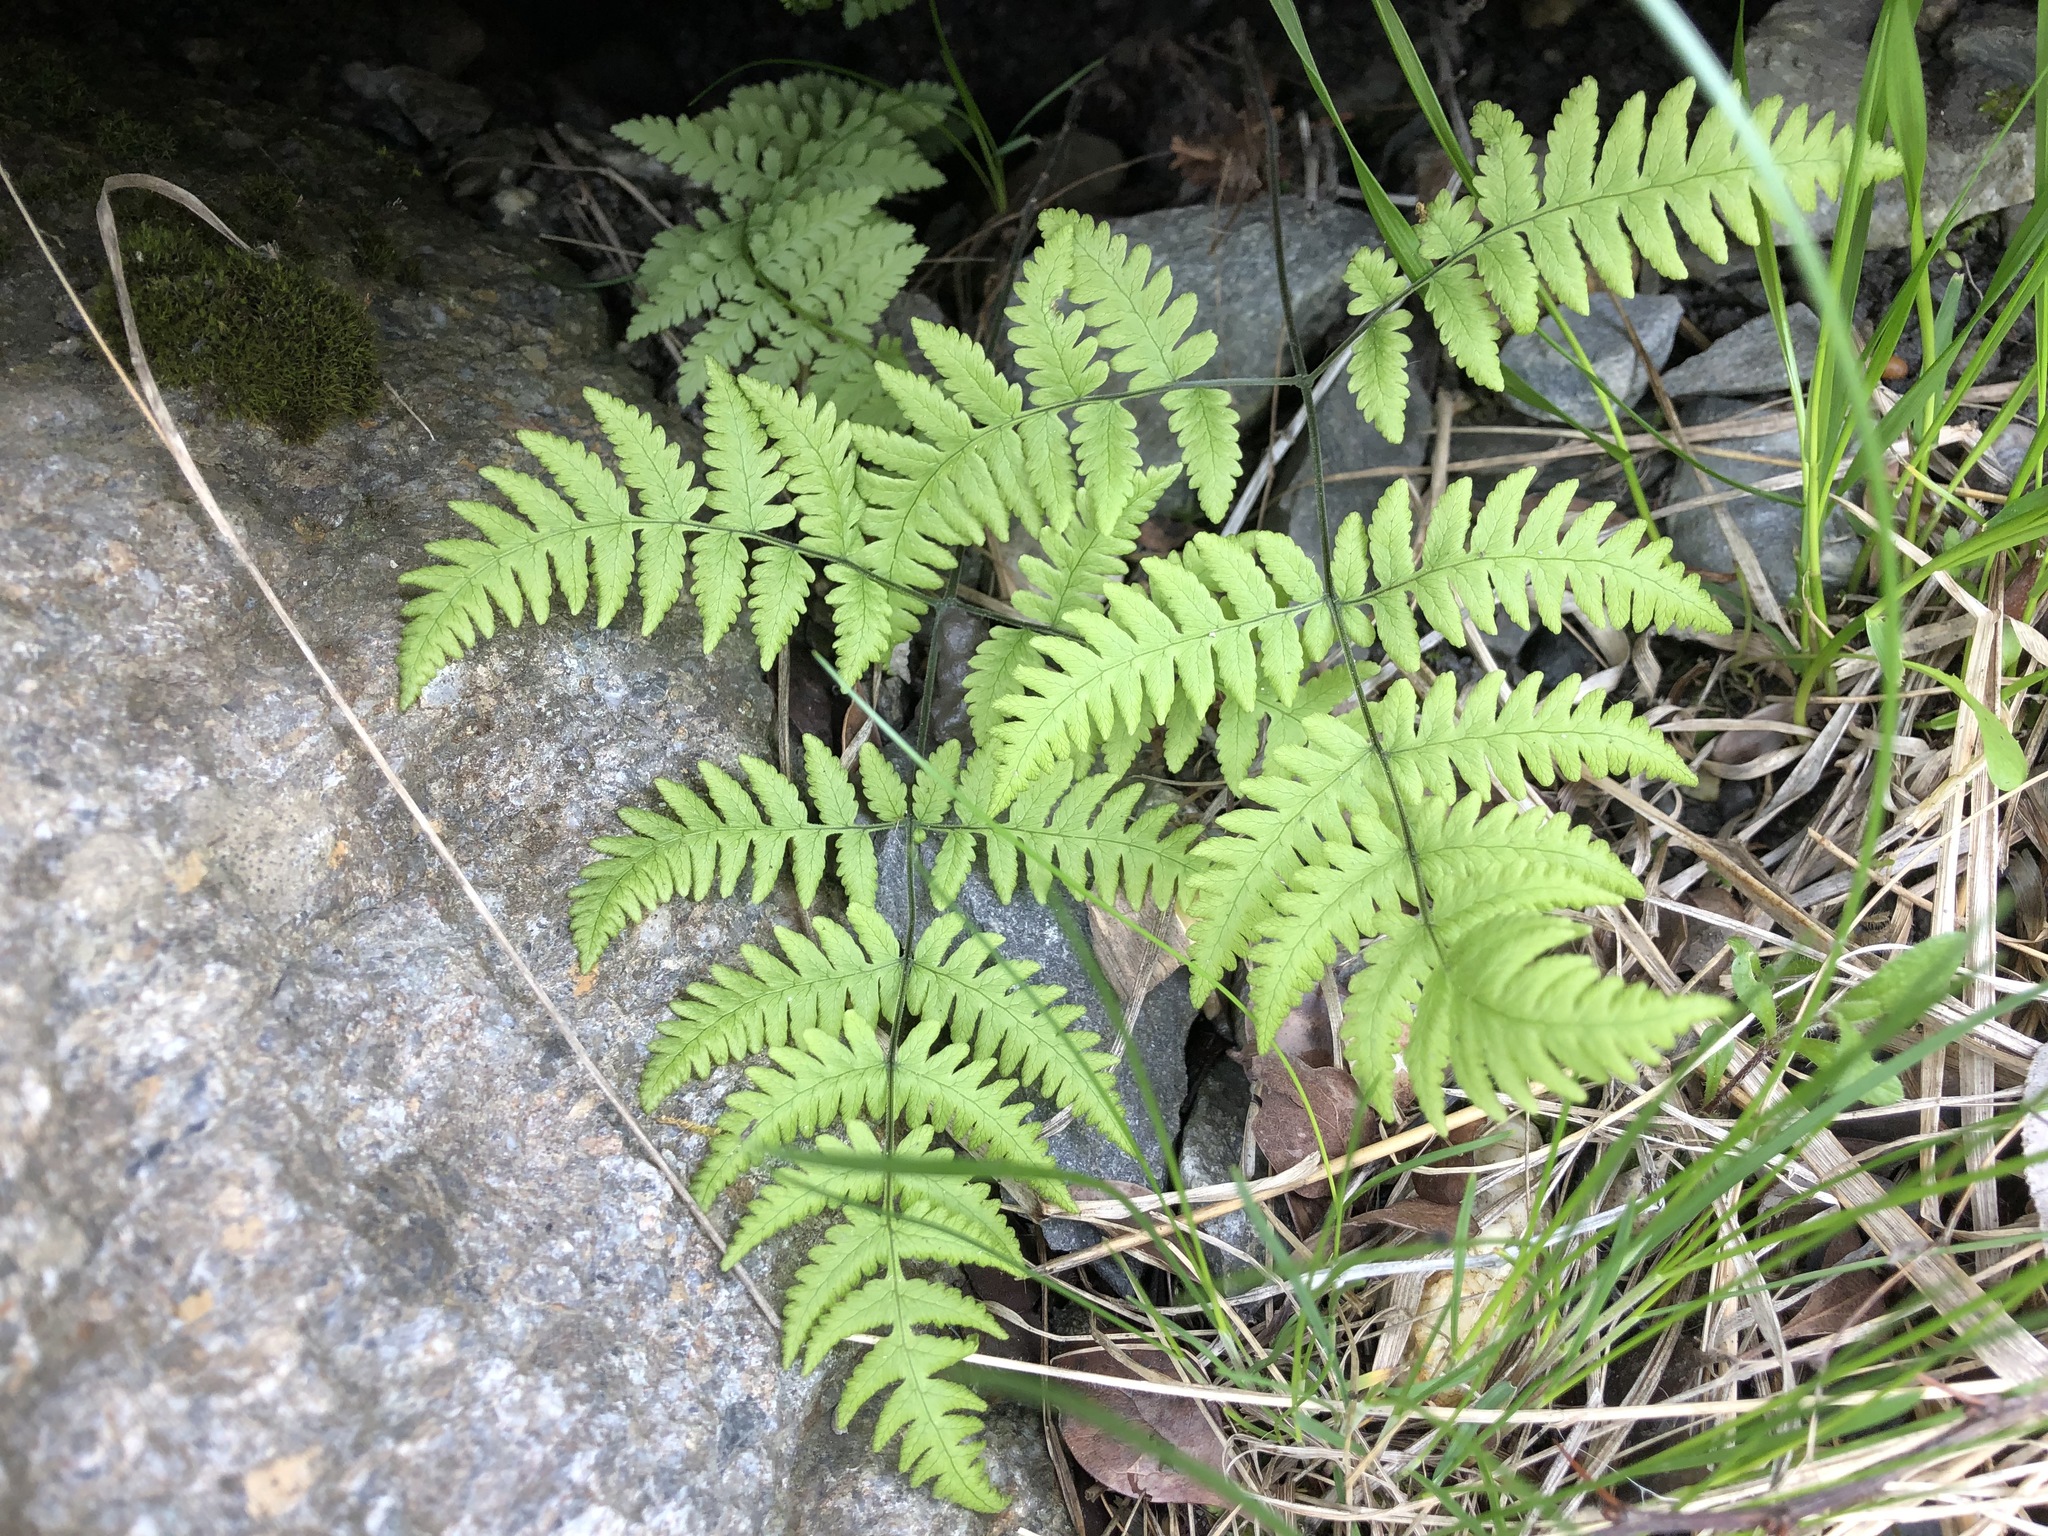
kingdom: Plantae
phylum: Tracheophyta
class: Polypodiopsida
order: Polypodiales
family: Cystopteridaceae
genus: Gymnocarpium
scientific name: Gymnocarpium robertianum
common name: Limestone fern
